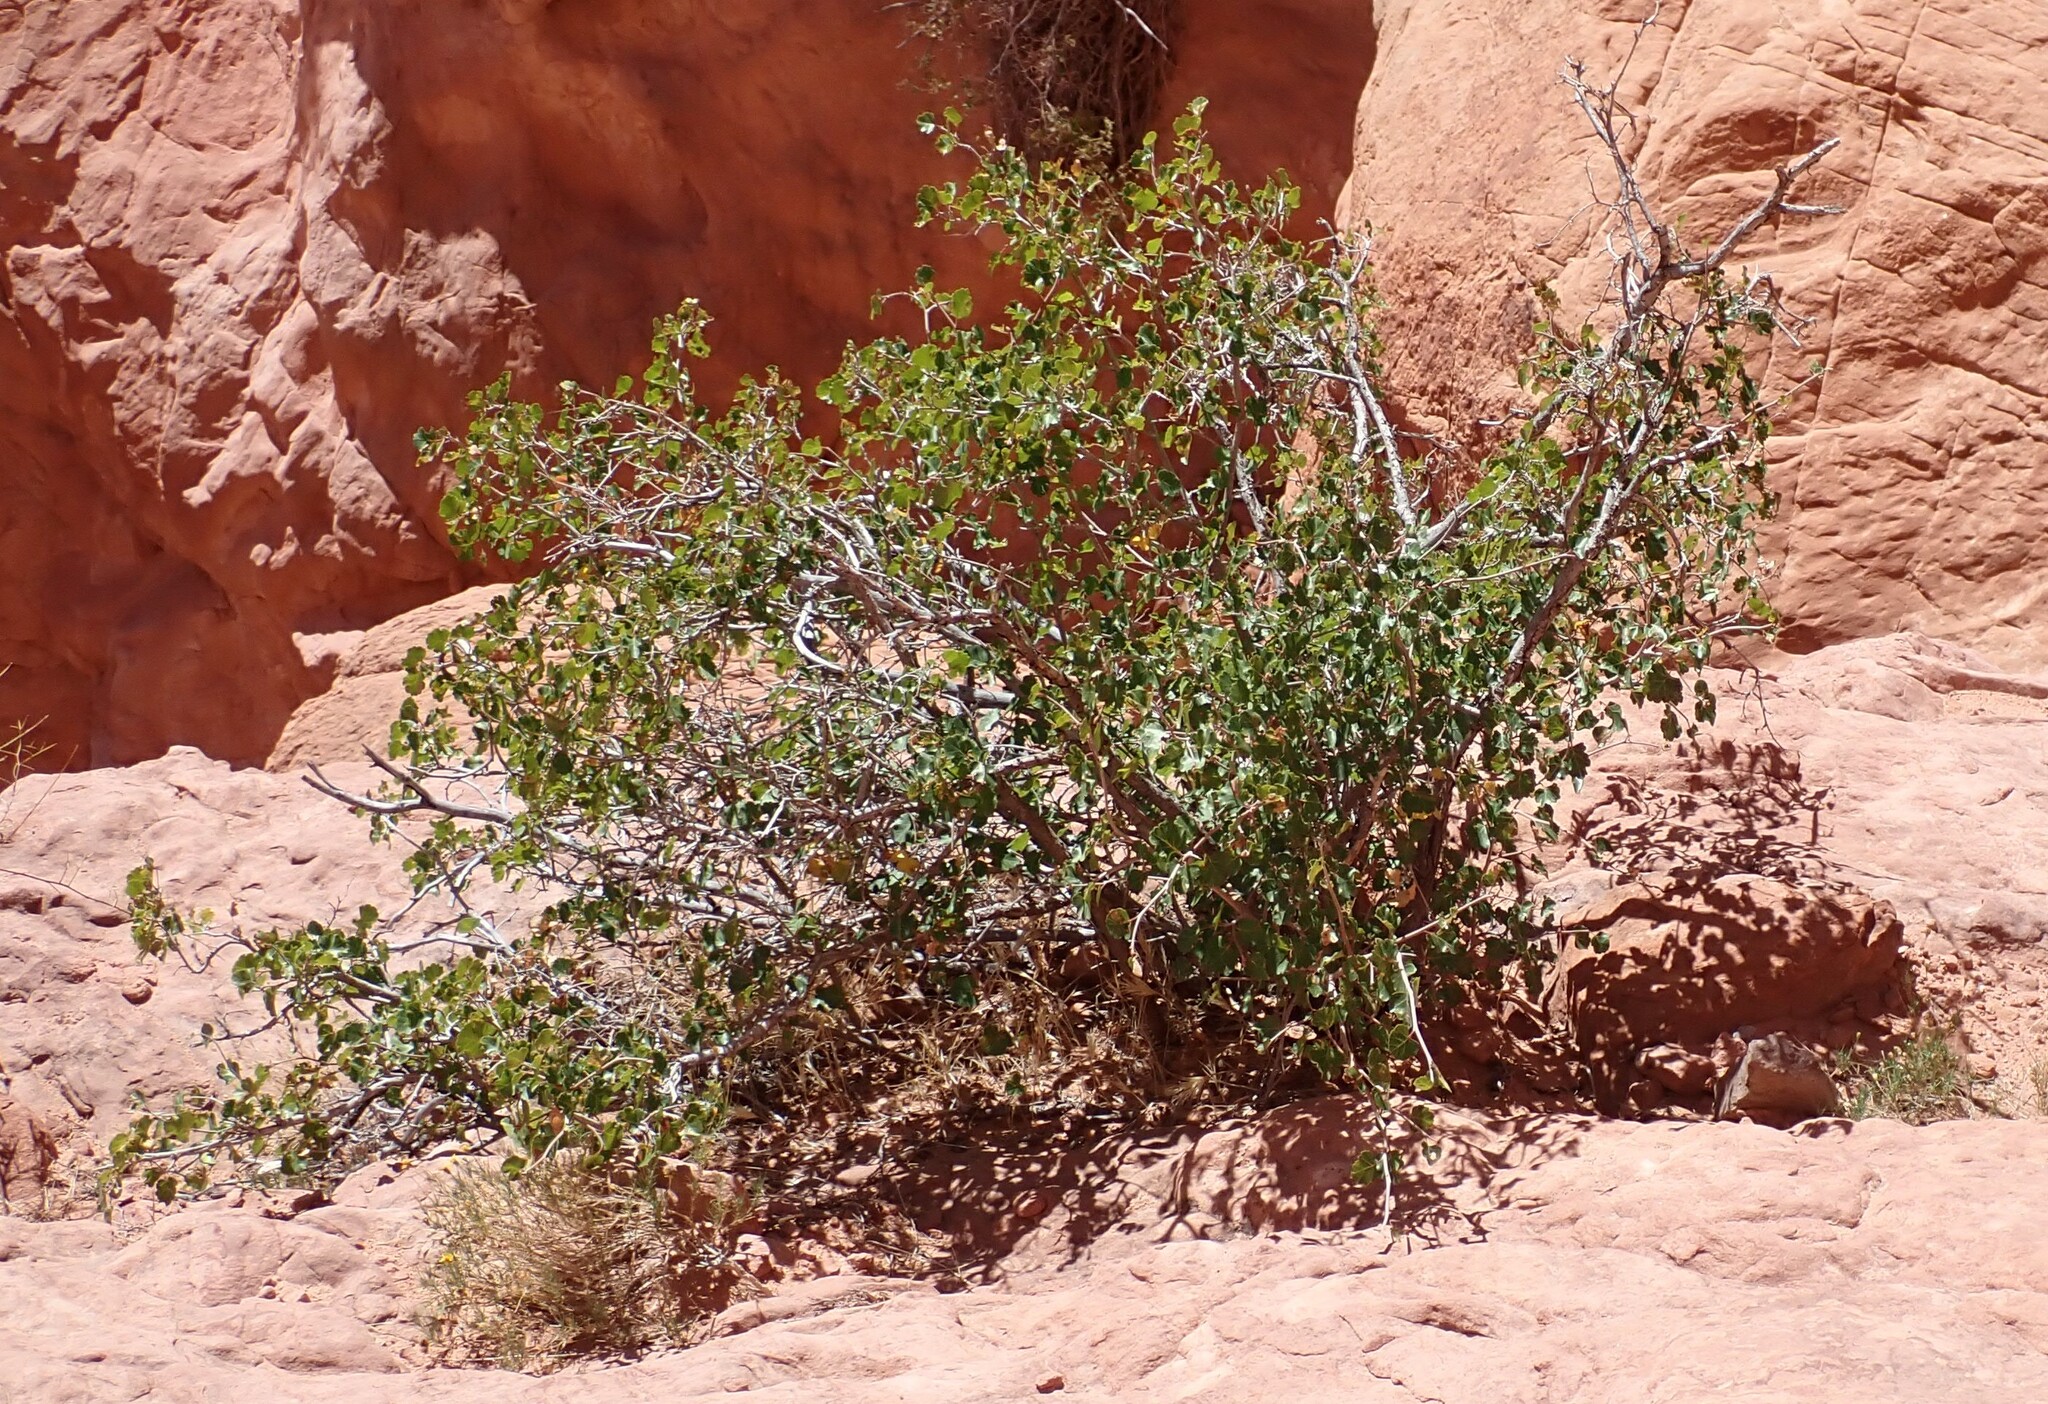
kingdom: Plantae
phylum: Tracheophyta
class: Magnoliopsida
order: Lamiales
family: Oleaceae
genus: Fraxinus
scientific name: Fraxinus anomala
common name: Utah ash
